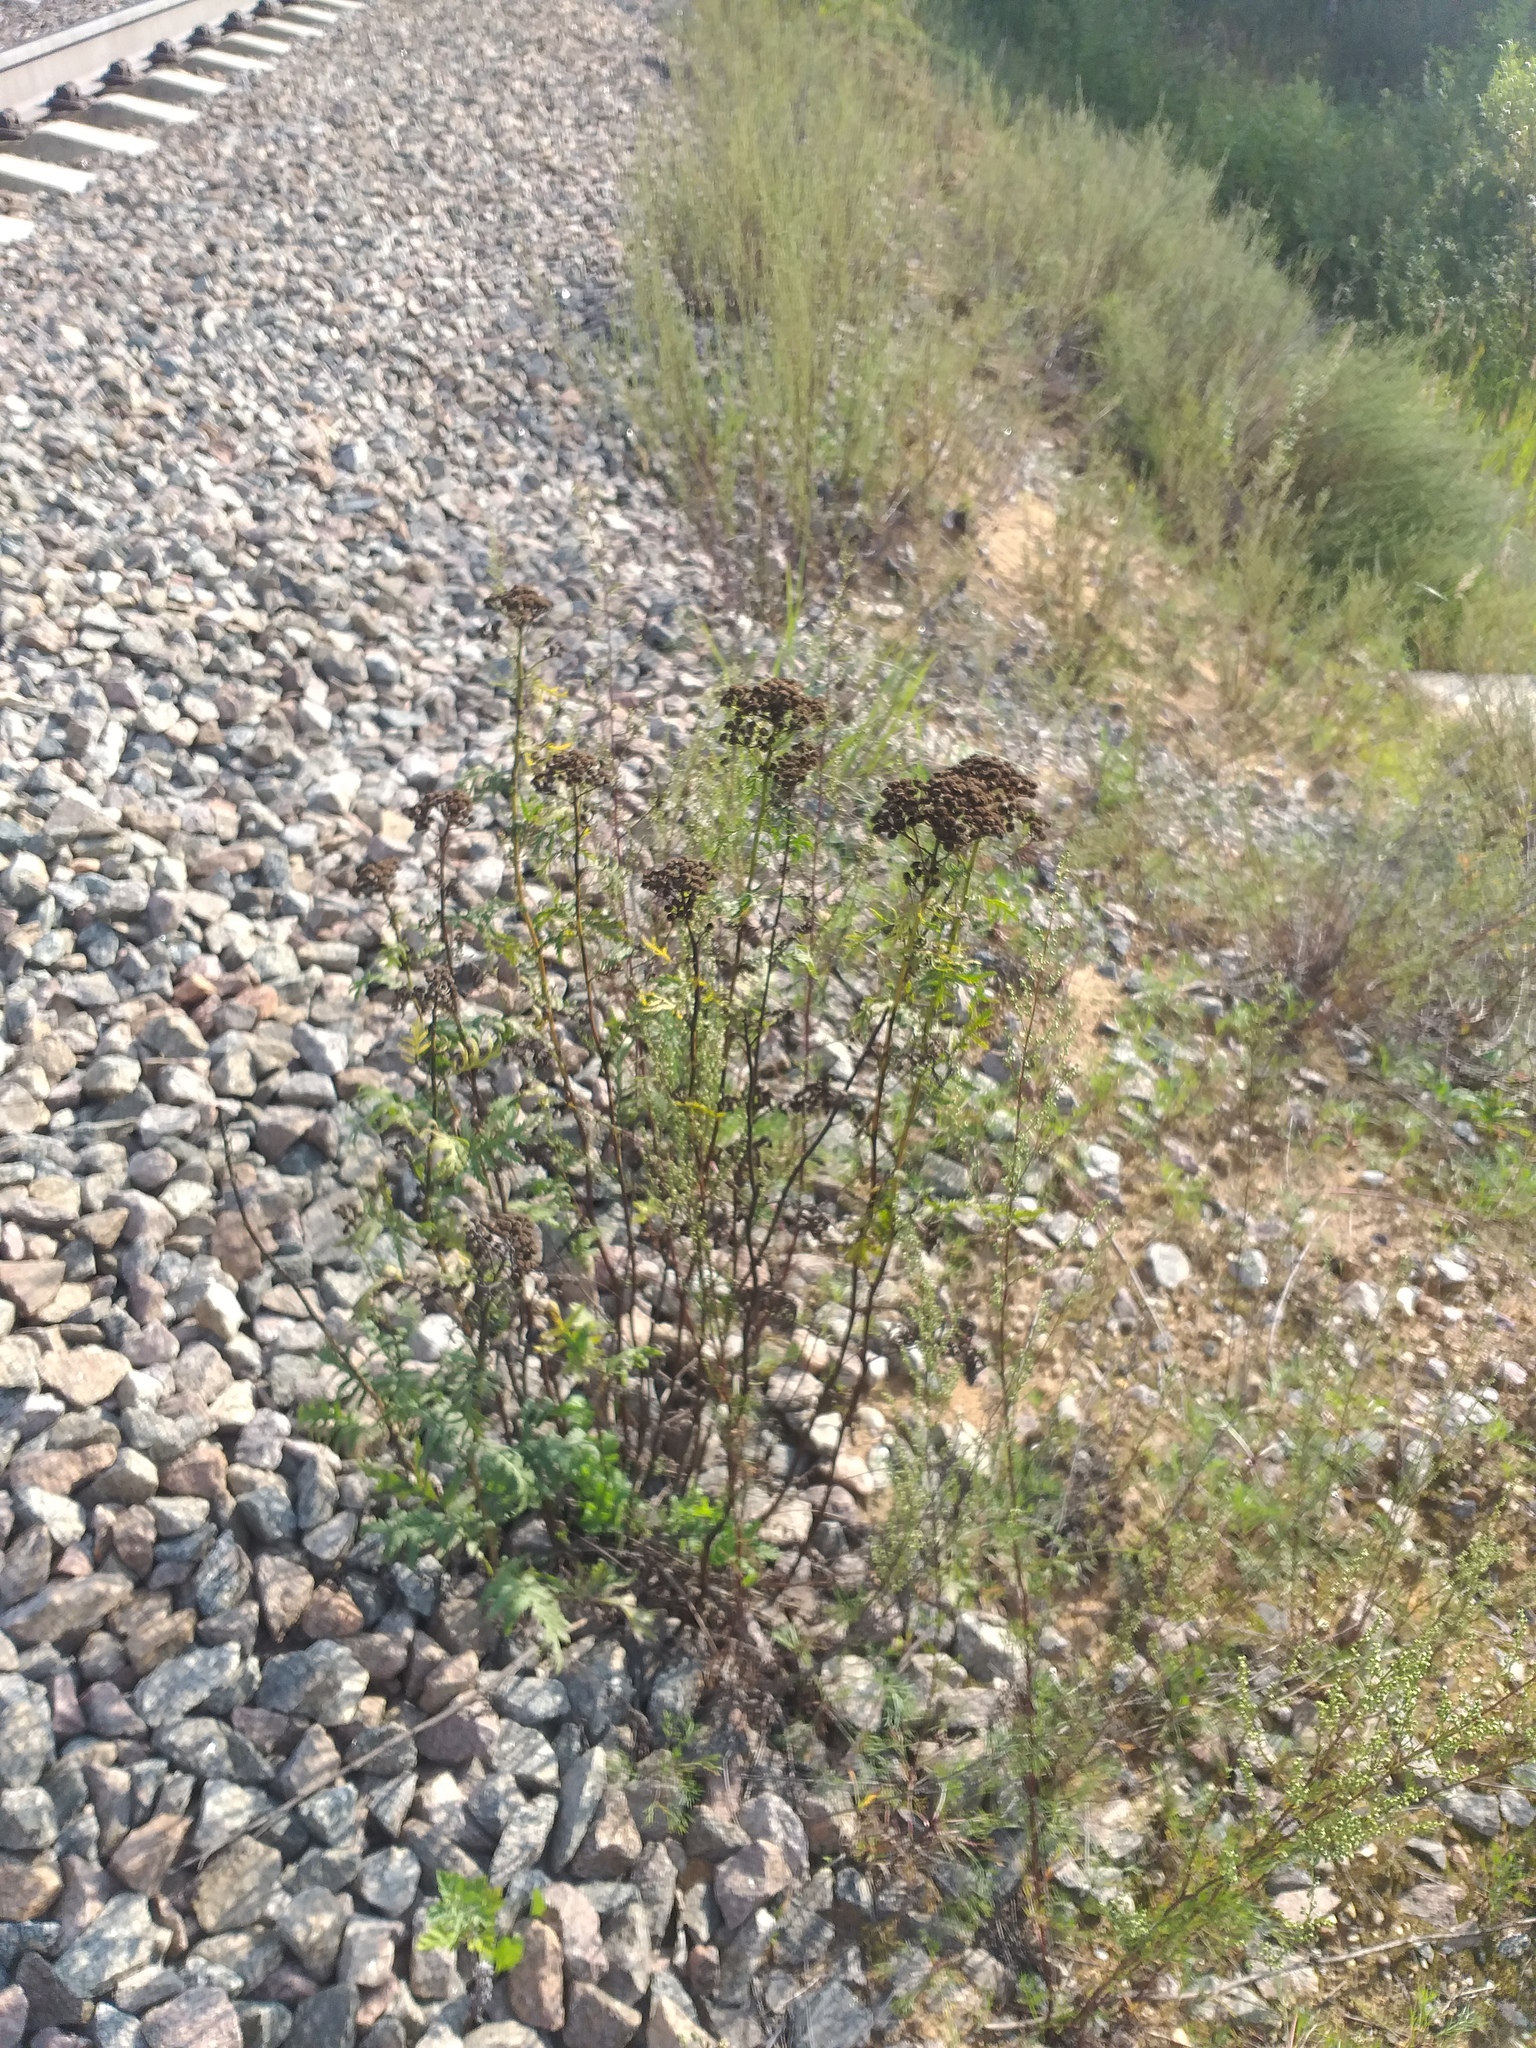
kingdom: Plantae
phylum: Tracheophyta
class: Magnoliopsida
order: Asterales
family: Asteraceae
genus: Tanacetum
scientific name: Tanacetum vulgare
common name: Common tansy
